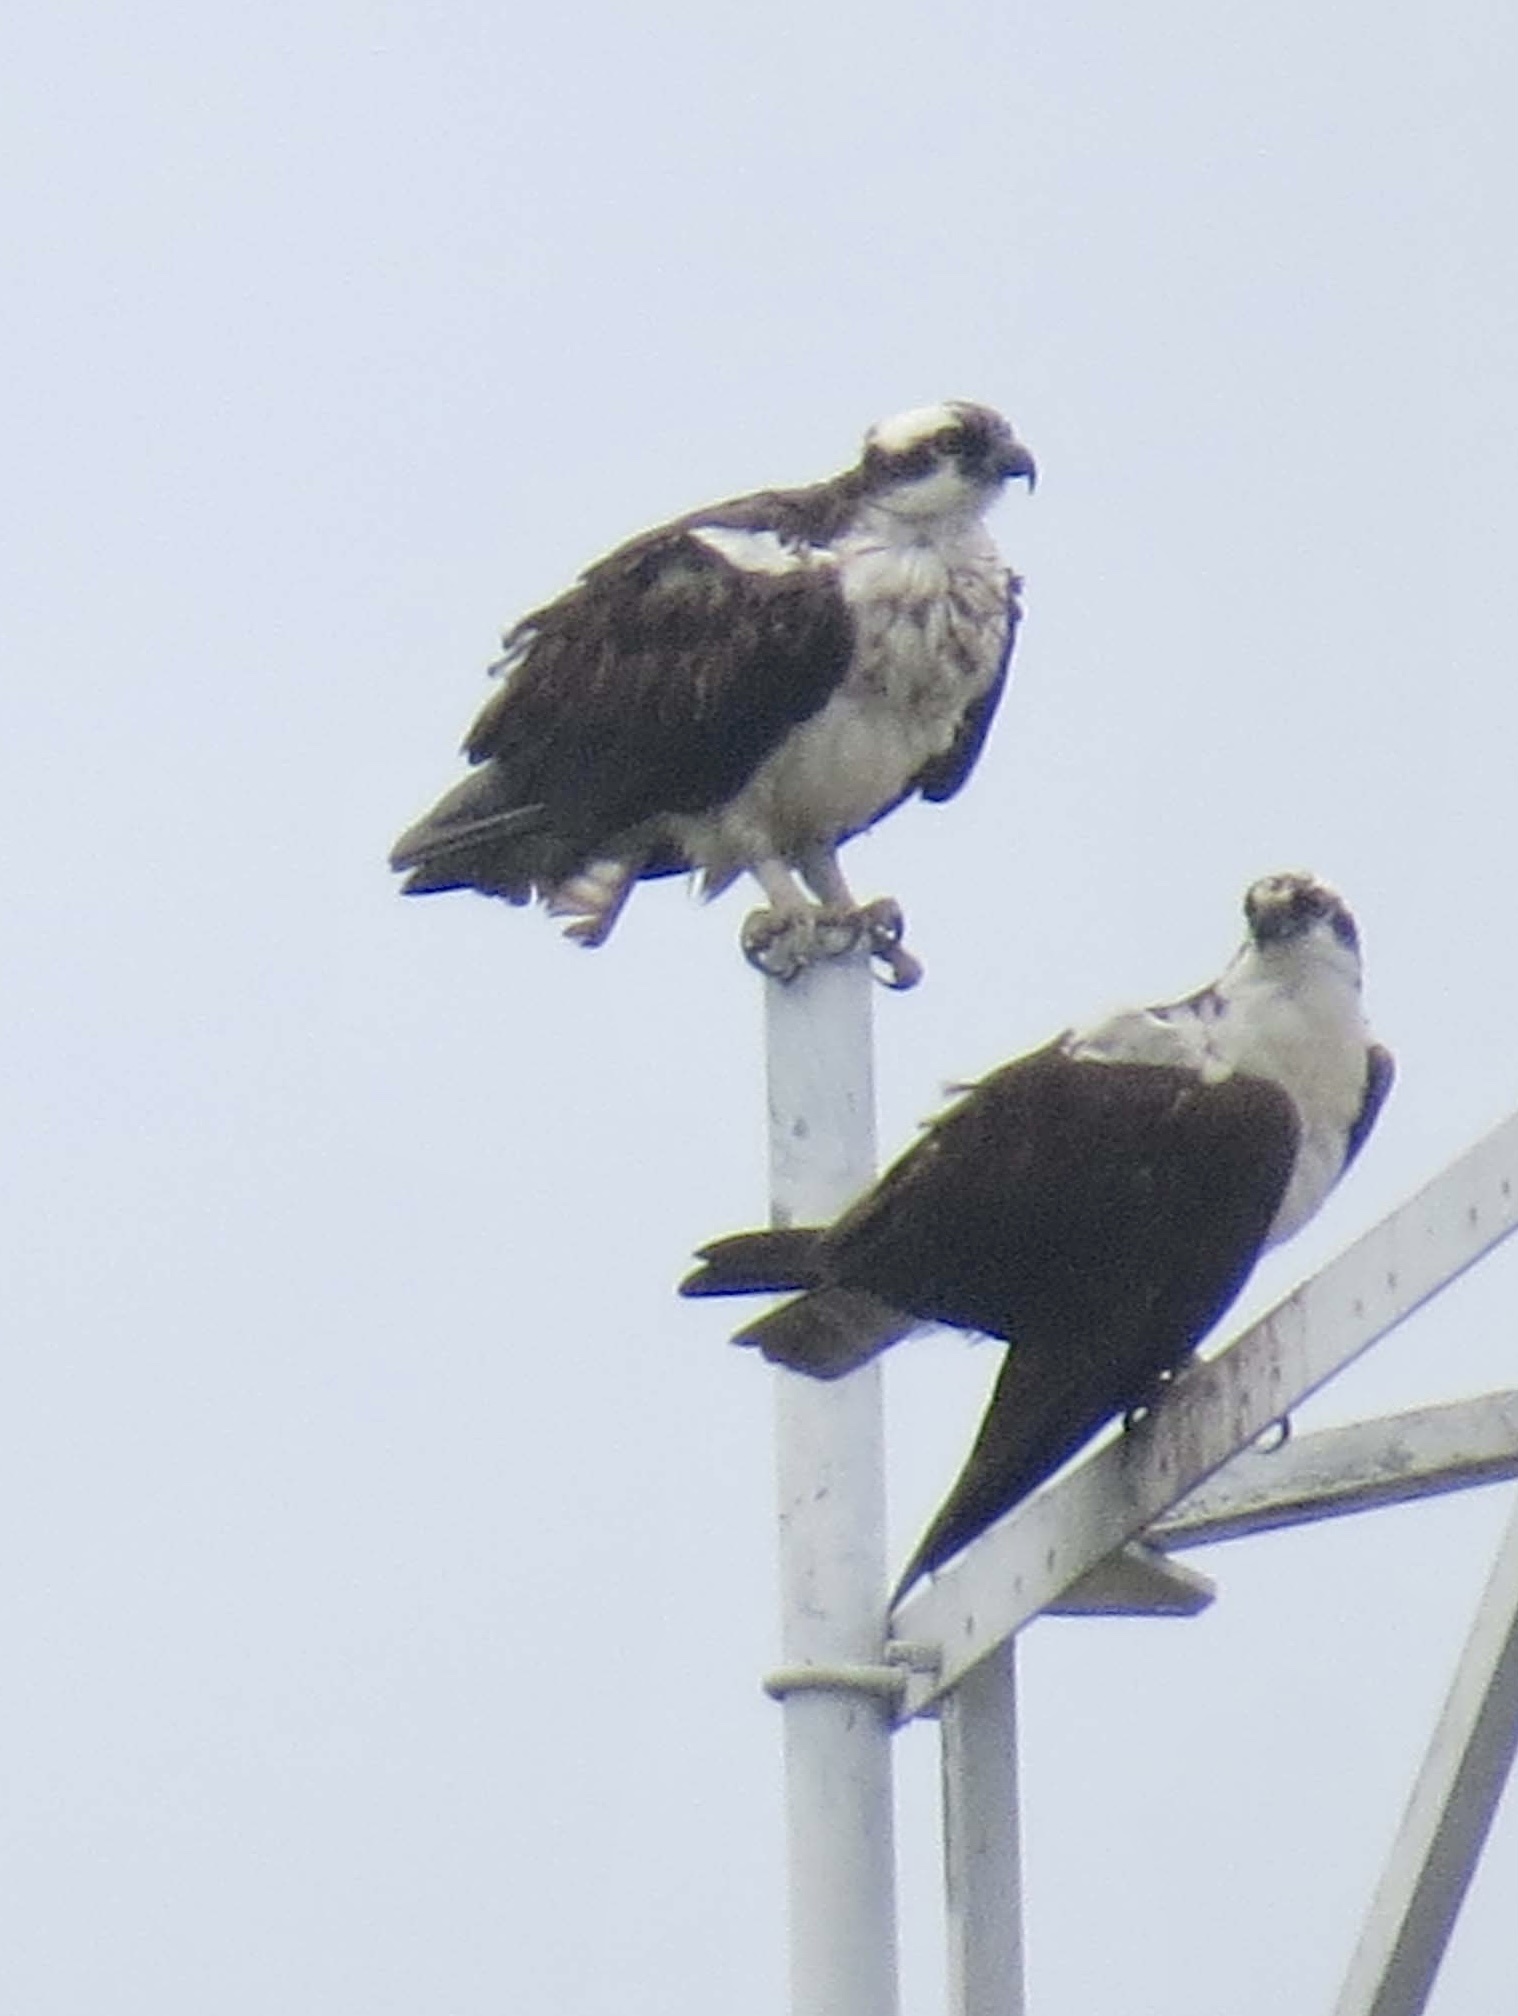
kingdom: Animalia
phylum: Chordata
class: Aves
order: Accipitriformes
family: Pandionidae
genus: Pandion
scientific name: Pandion haliaetus
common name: Osprey
